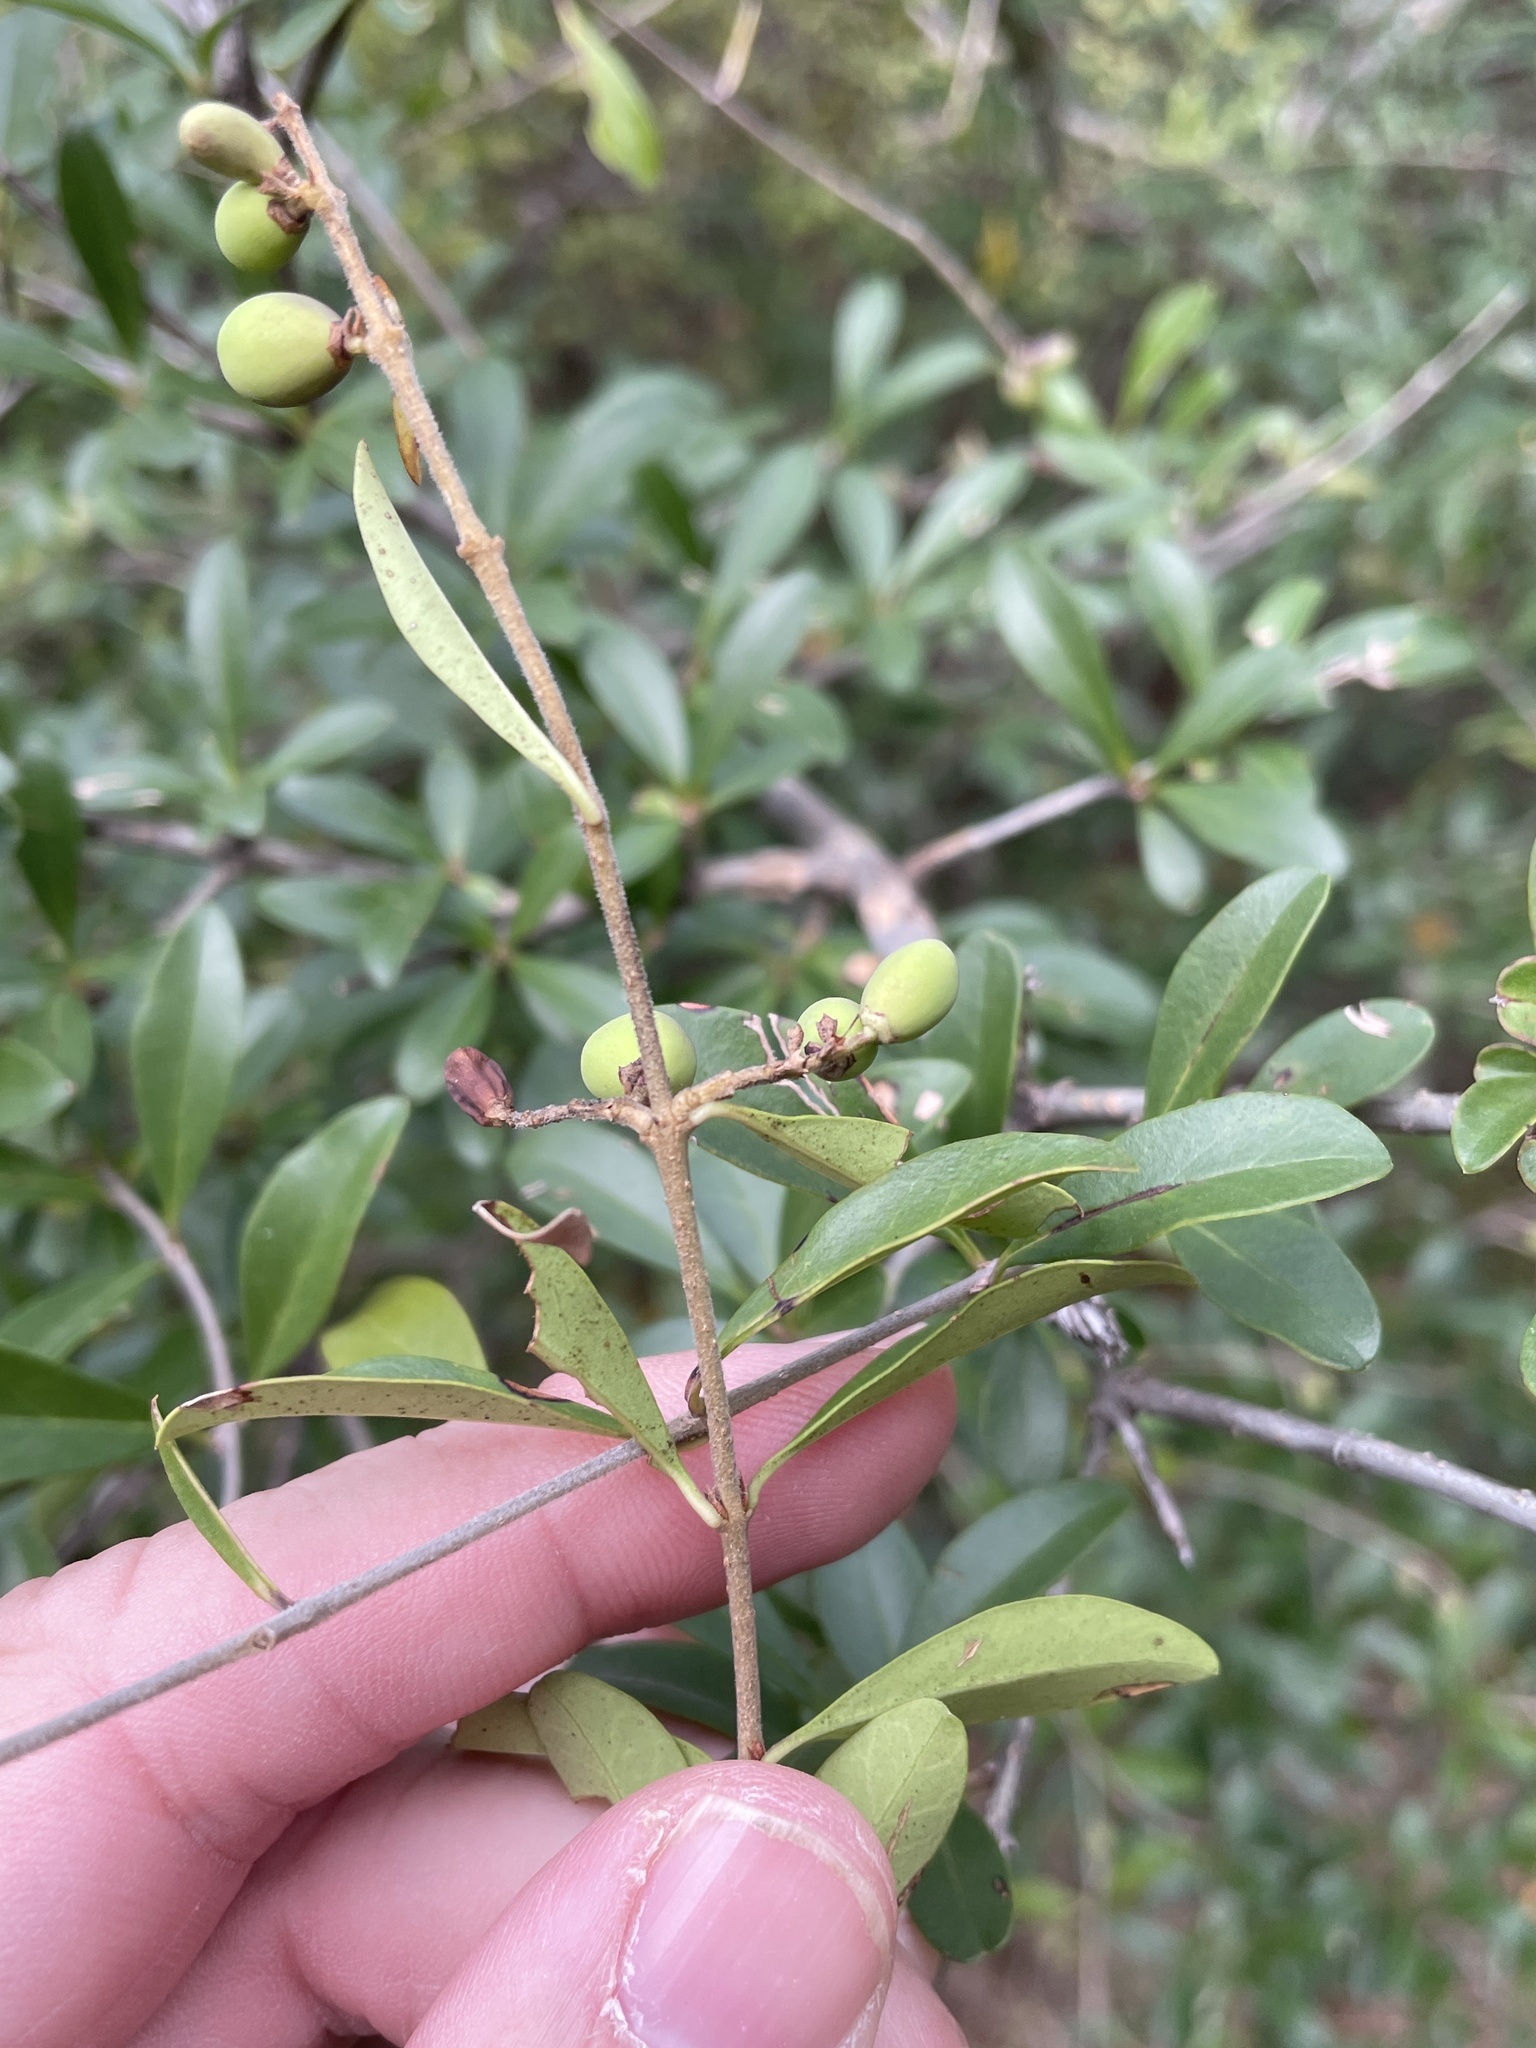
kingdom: Plantae
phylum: Tracheophyta
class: Magnoliopsida
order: Lamiales
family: Oleaceae
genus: Ligustrum
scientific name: Ligustrum quihoui
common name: Waxyleaf privet
